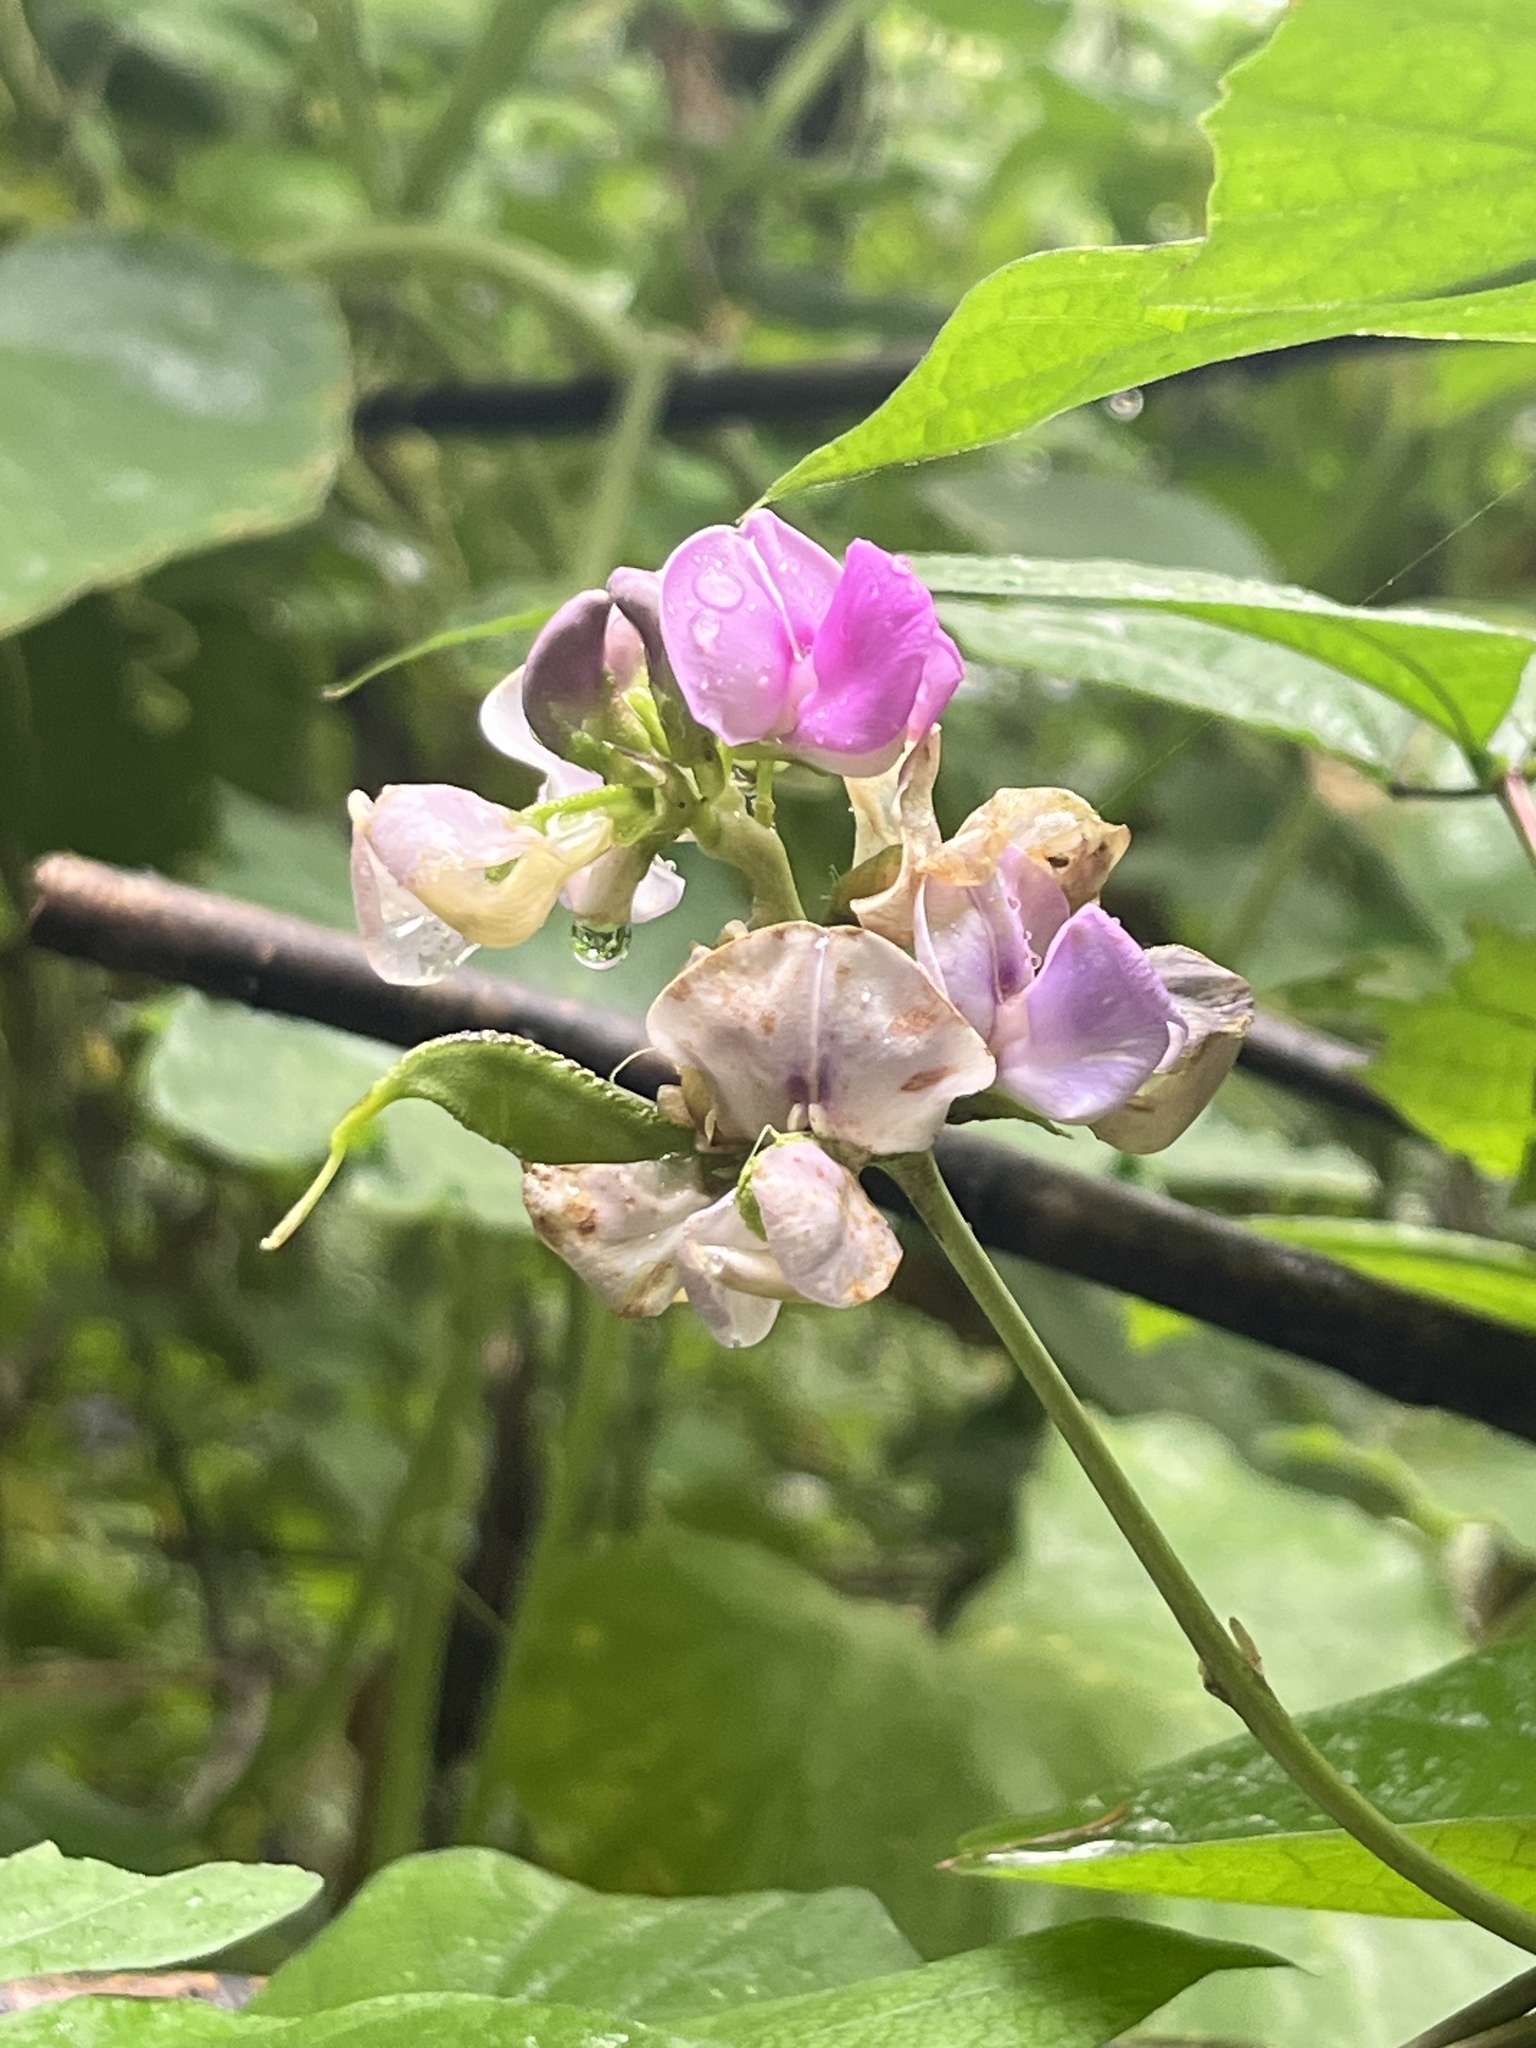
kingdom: Plantae
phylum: Tracheophyta
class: Magnoliopsida
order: Fabales
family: Fabaceae
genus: Lablab
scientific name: Lablab purpureus
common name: Lablab-bean
